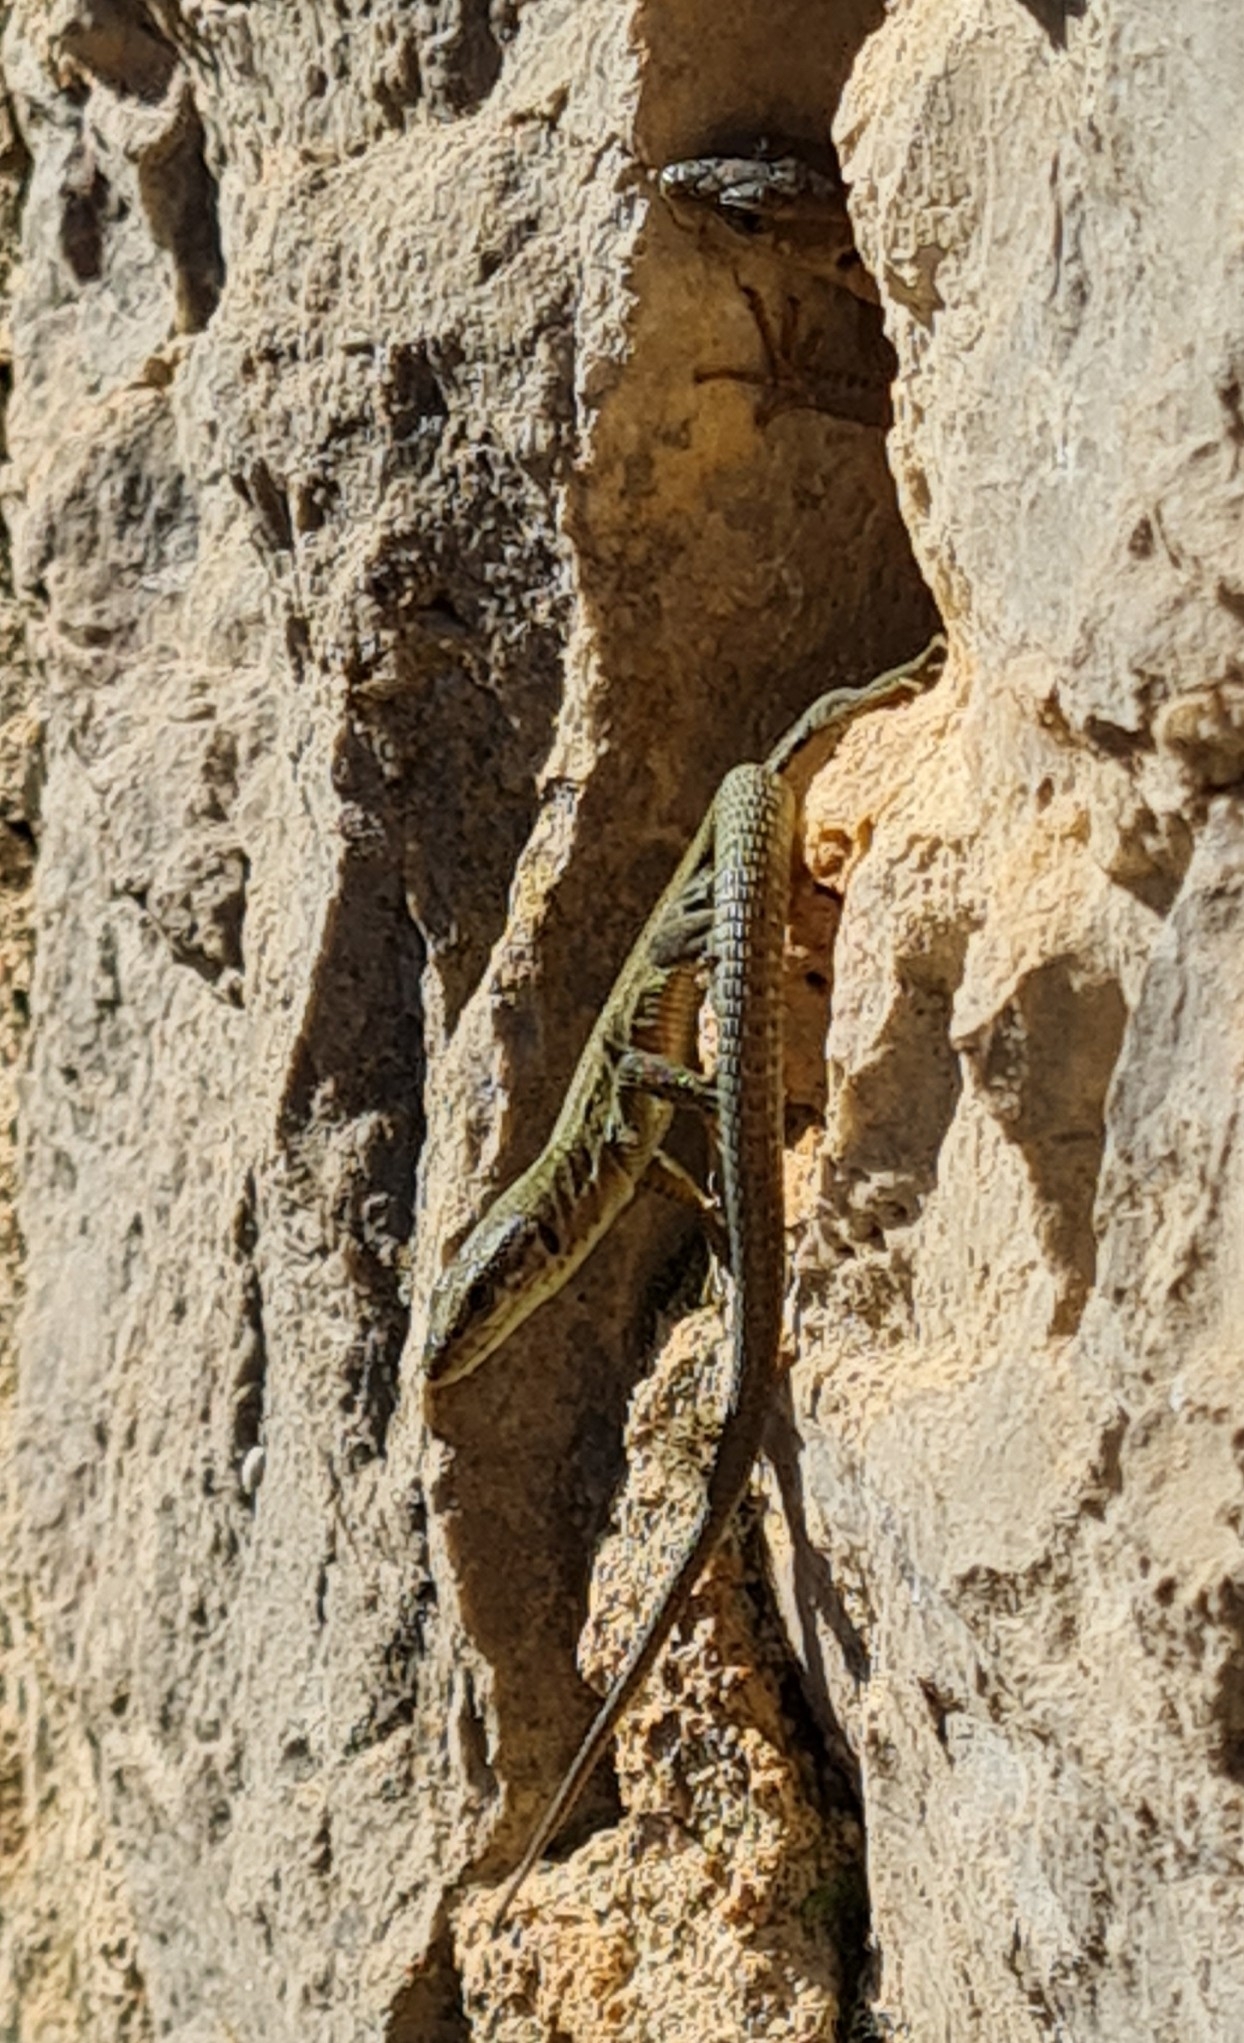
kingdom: Animalia
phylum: Chordata
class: Squamata
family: Lacertidae
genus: Podarcis
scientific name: Podarcis liolepis
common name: Catalonian wall lizard
